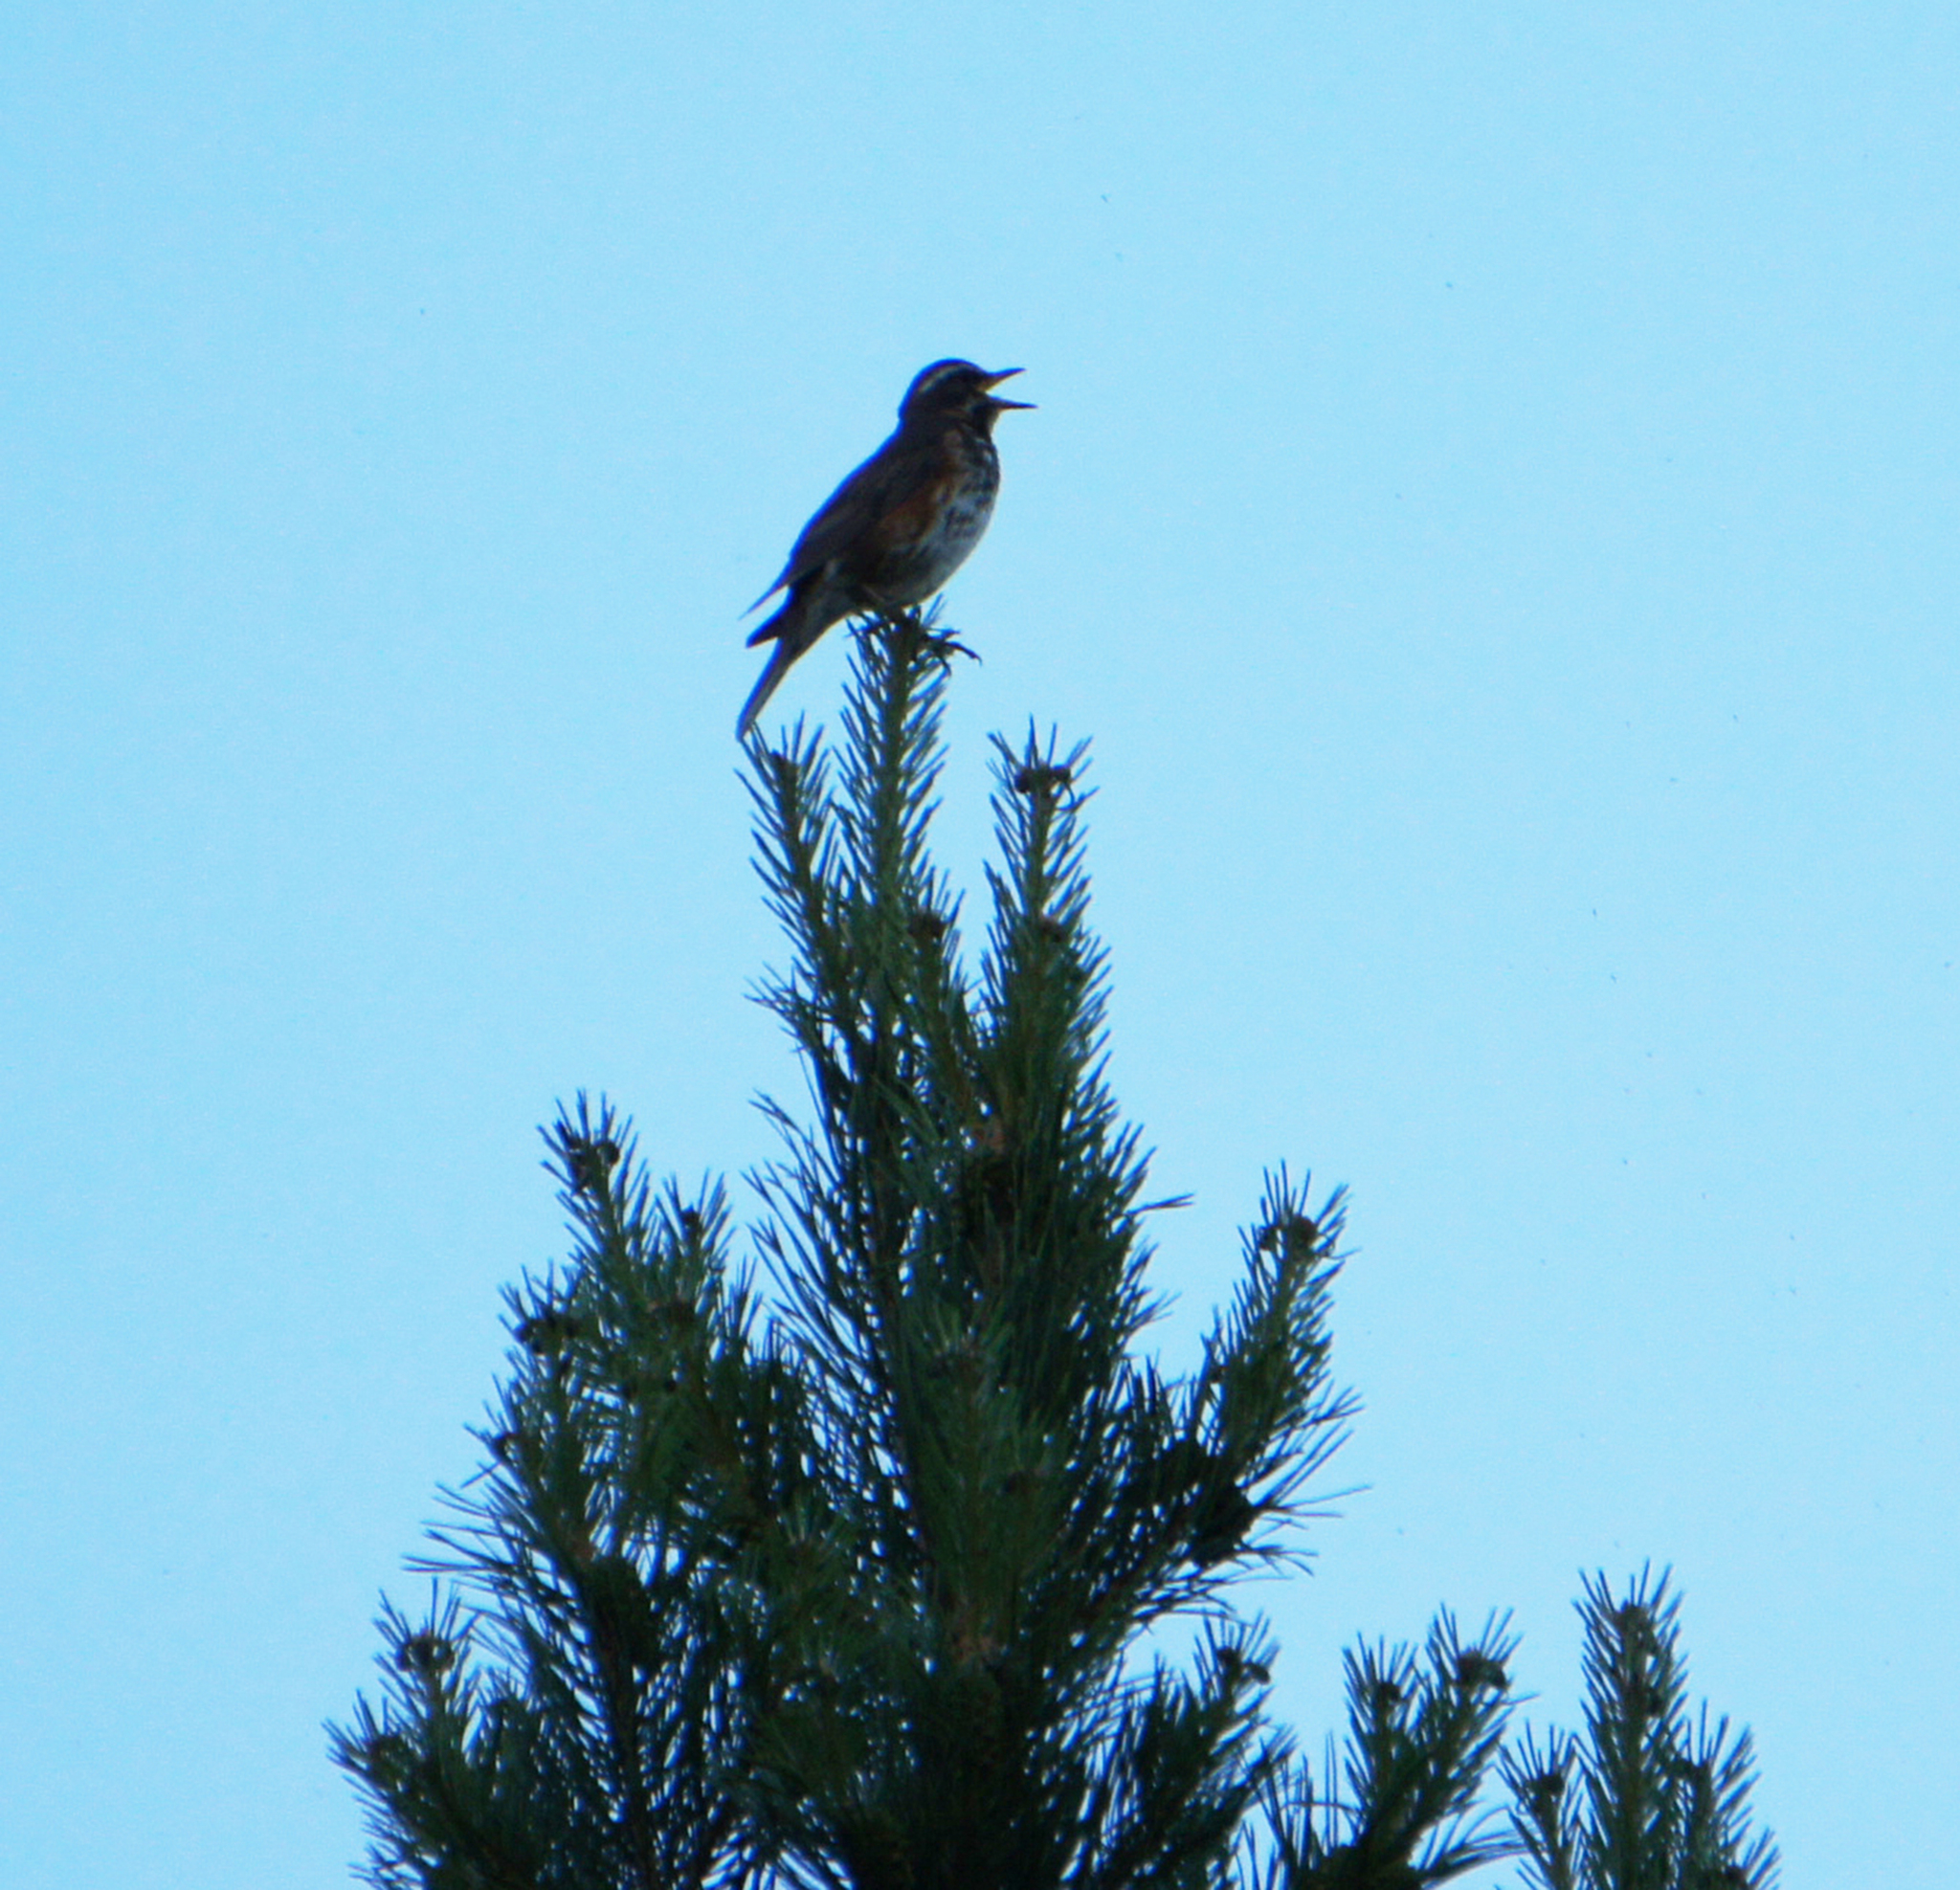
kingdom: Animalia
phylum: Chordata
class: Aves
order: Passeriformes
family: Turdidae
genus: Turdus
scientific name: Turdus iliacus
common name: Redwing
